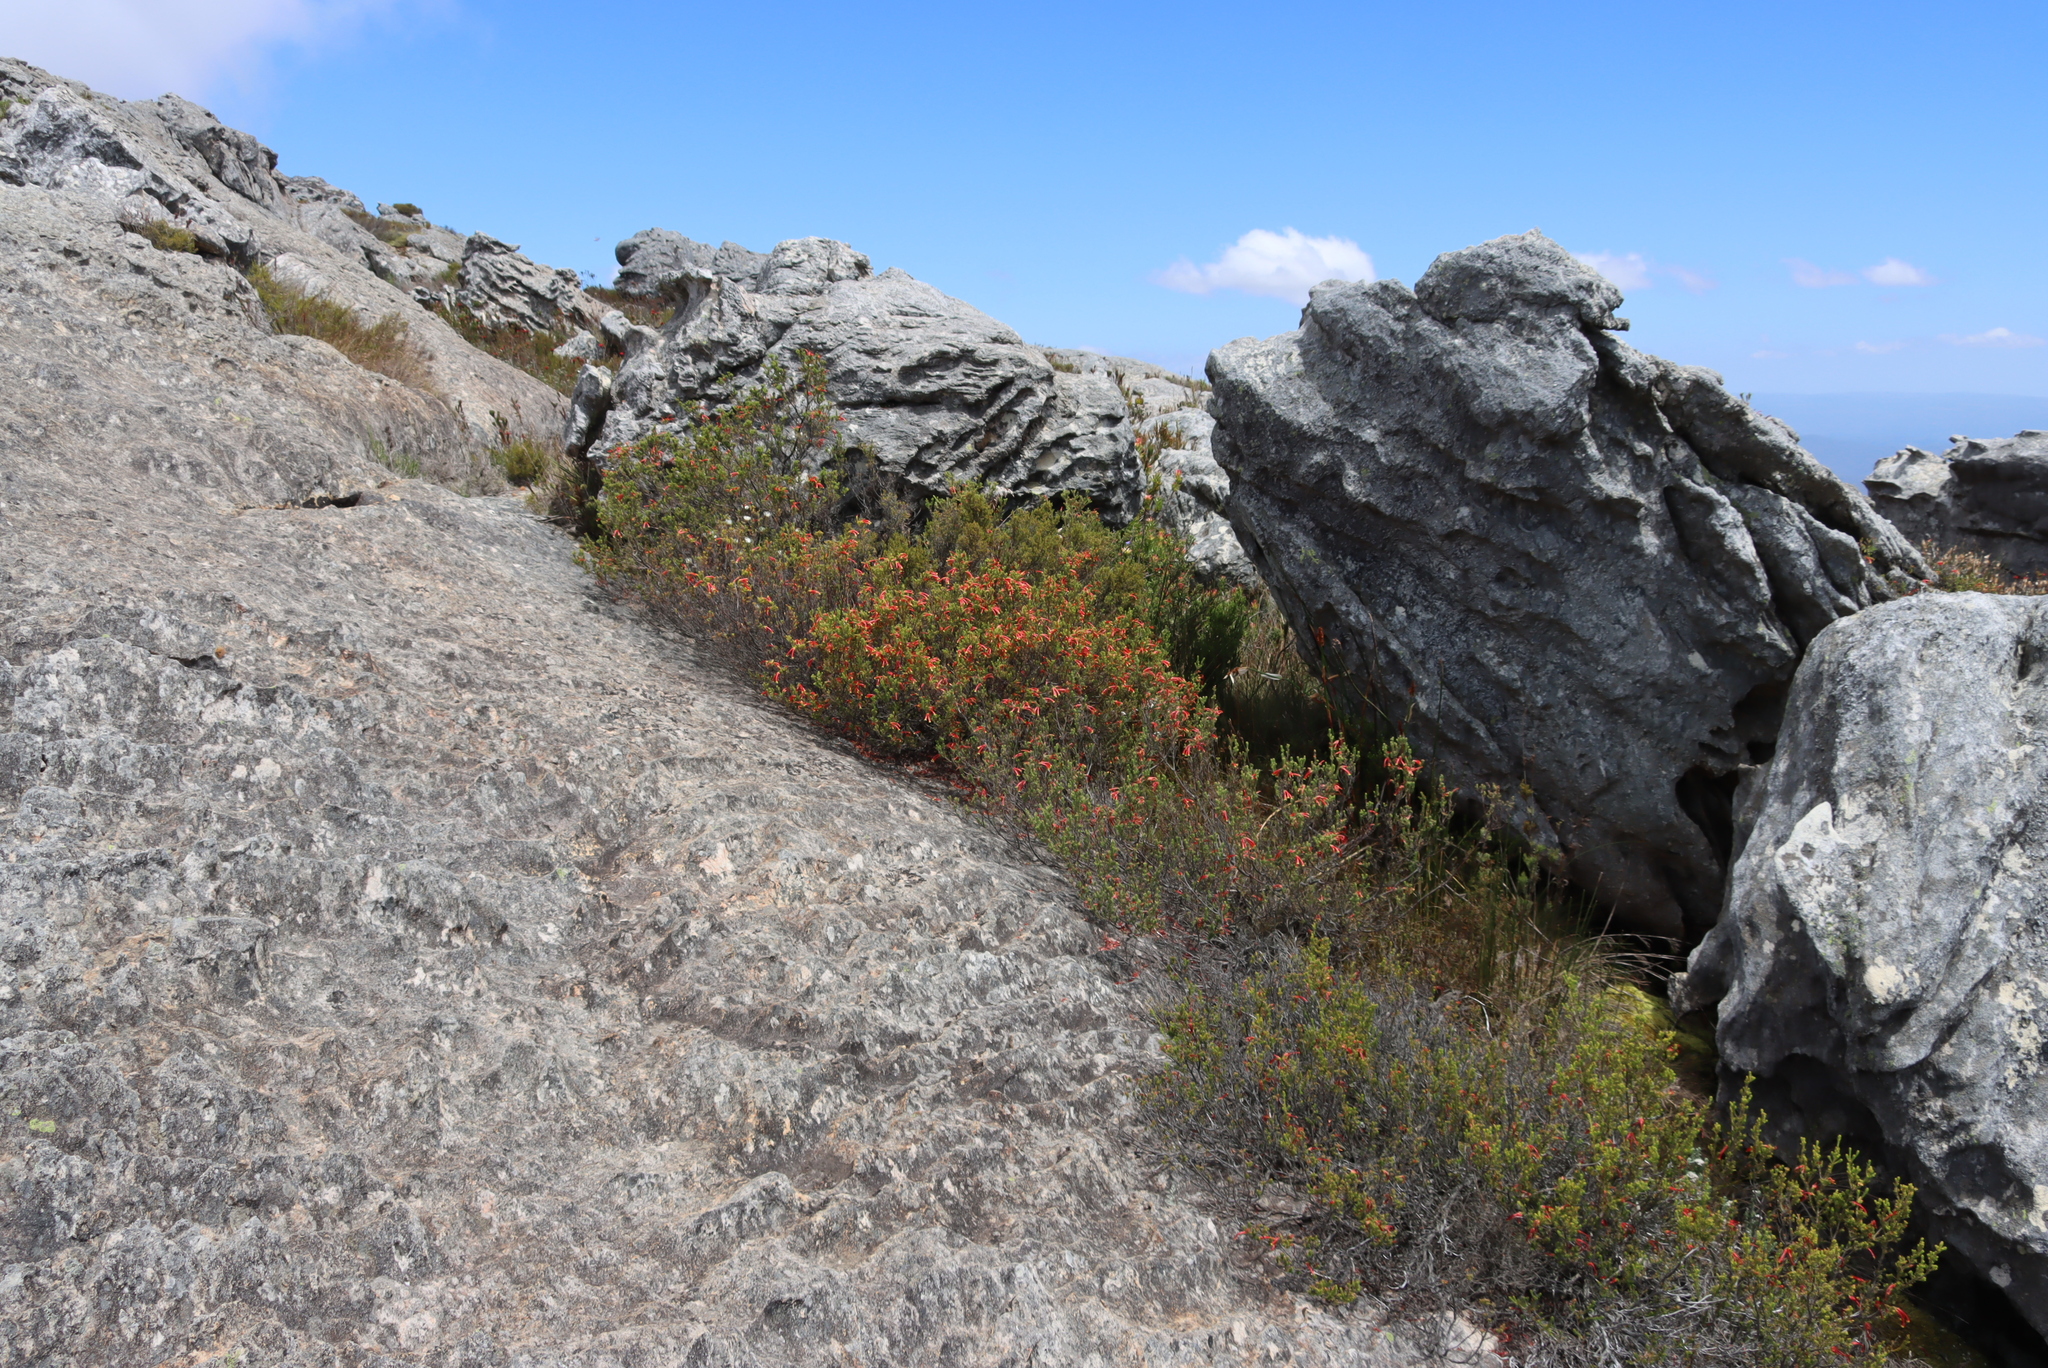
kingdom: Plantae
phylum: Tracheophyta
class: Magnoliopsida
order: Ericales
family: Ericaceae
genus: Erica
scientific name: Erica discolor
